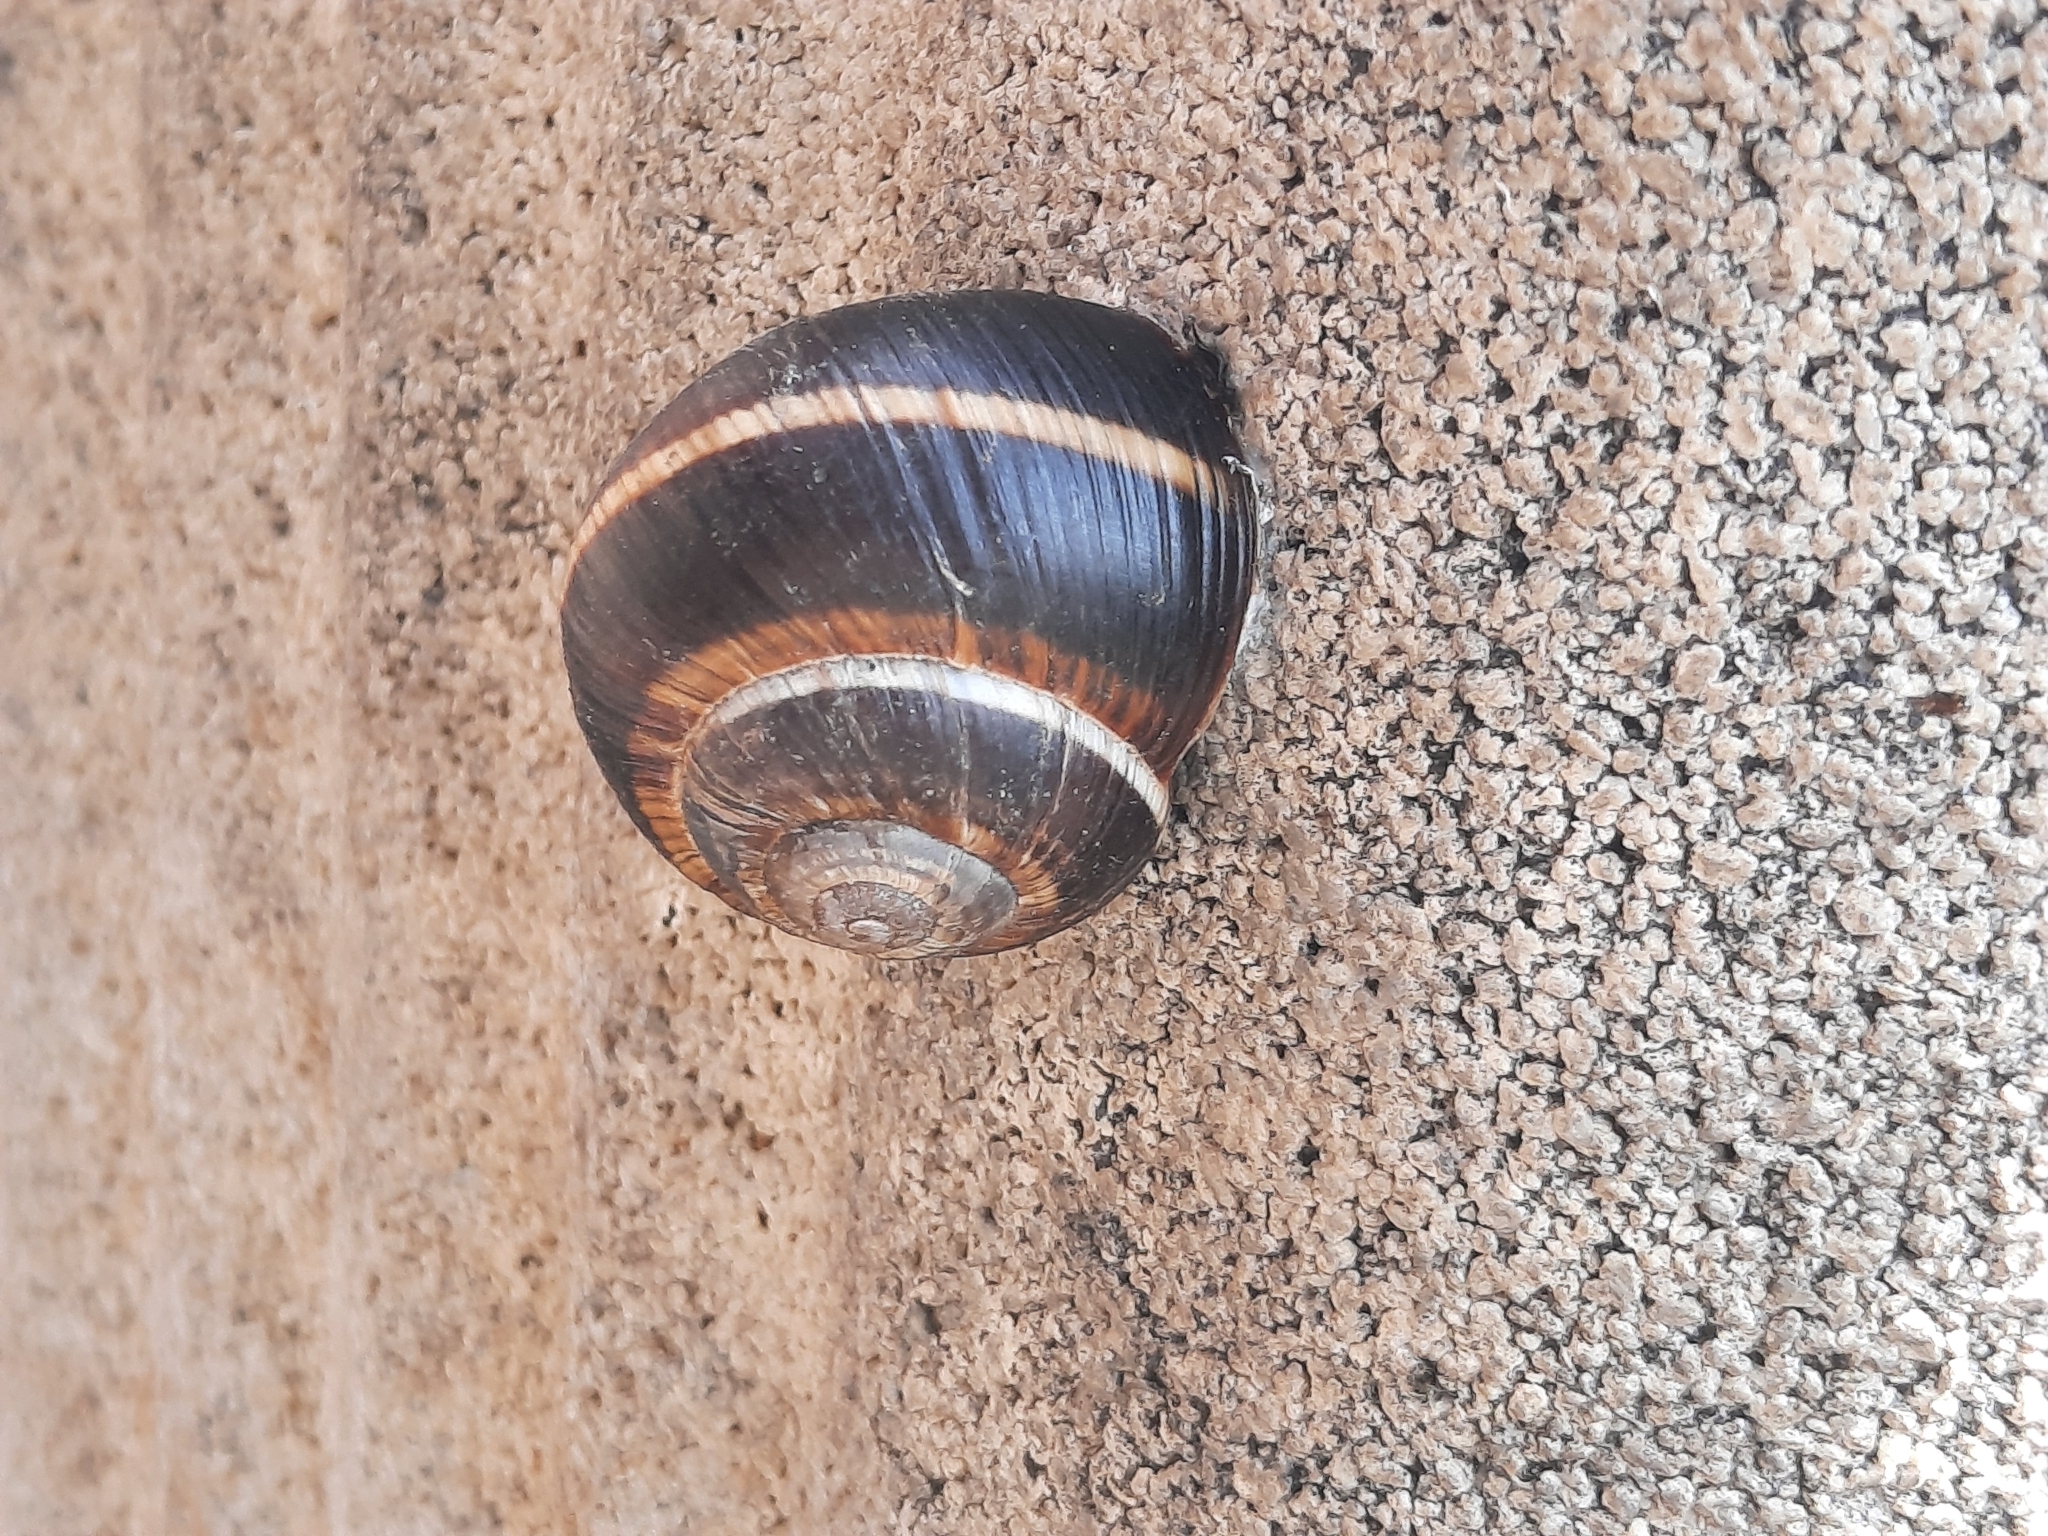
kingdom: Animalia
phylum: Mollusca
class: Gastropoda
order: Stylommatophora
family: Helicidae
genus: Helix
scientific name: Helix lucorum
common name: Turkish snail
